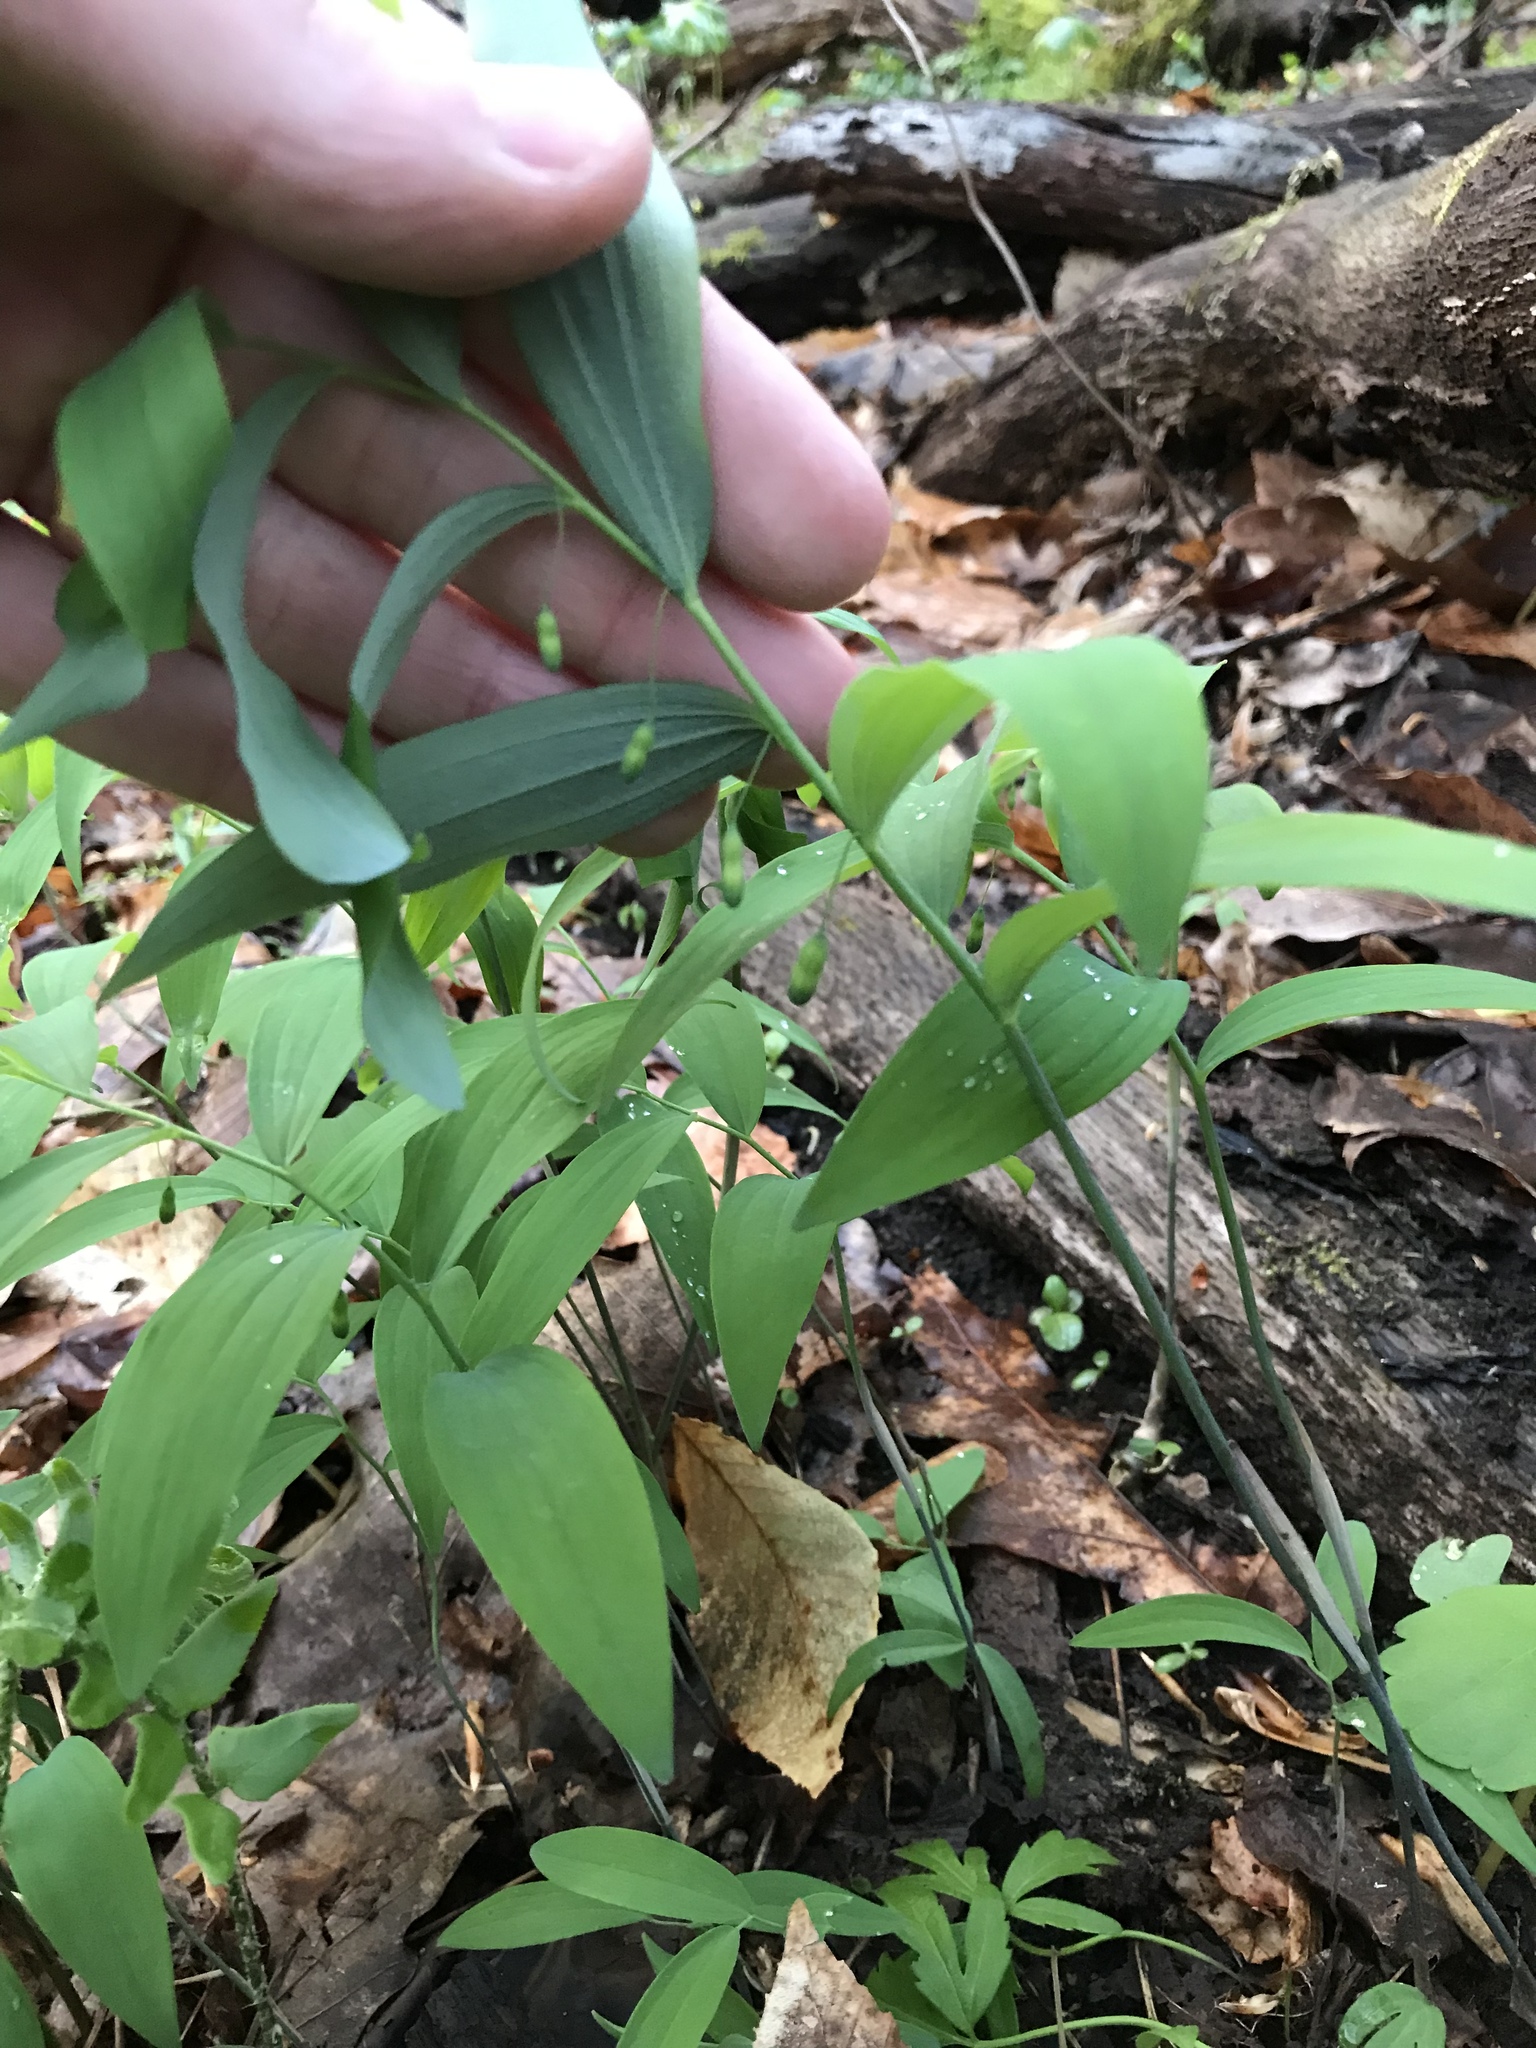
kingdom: Plantae
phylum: Tracheophyta
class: Liliopsida
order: Asparagales
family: Asparagaceae
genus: Polygonatum
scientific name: Polygonatum pubescens
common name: Downy solomon's seal
